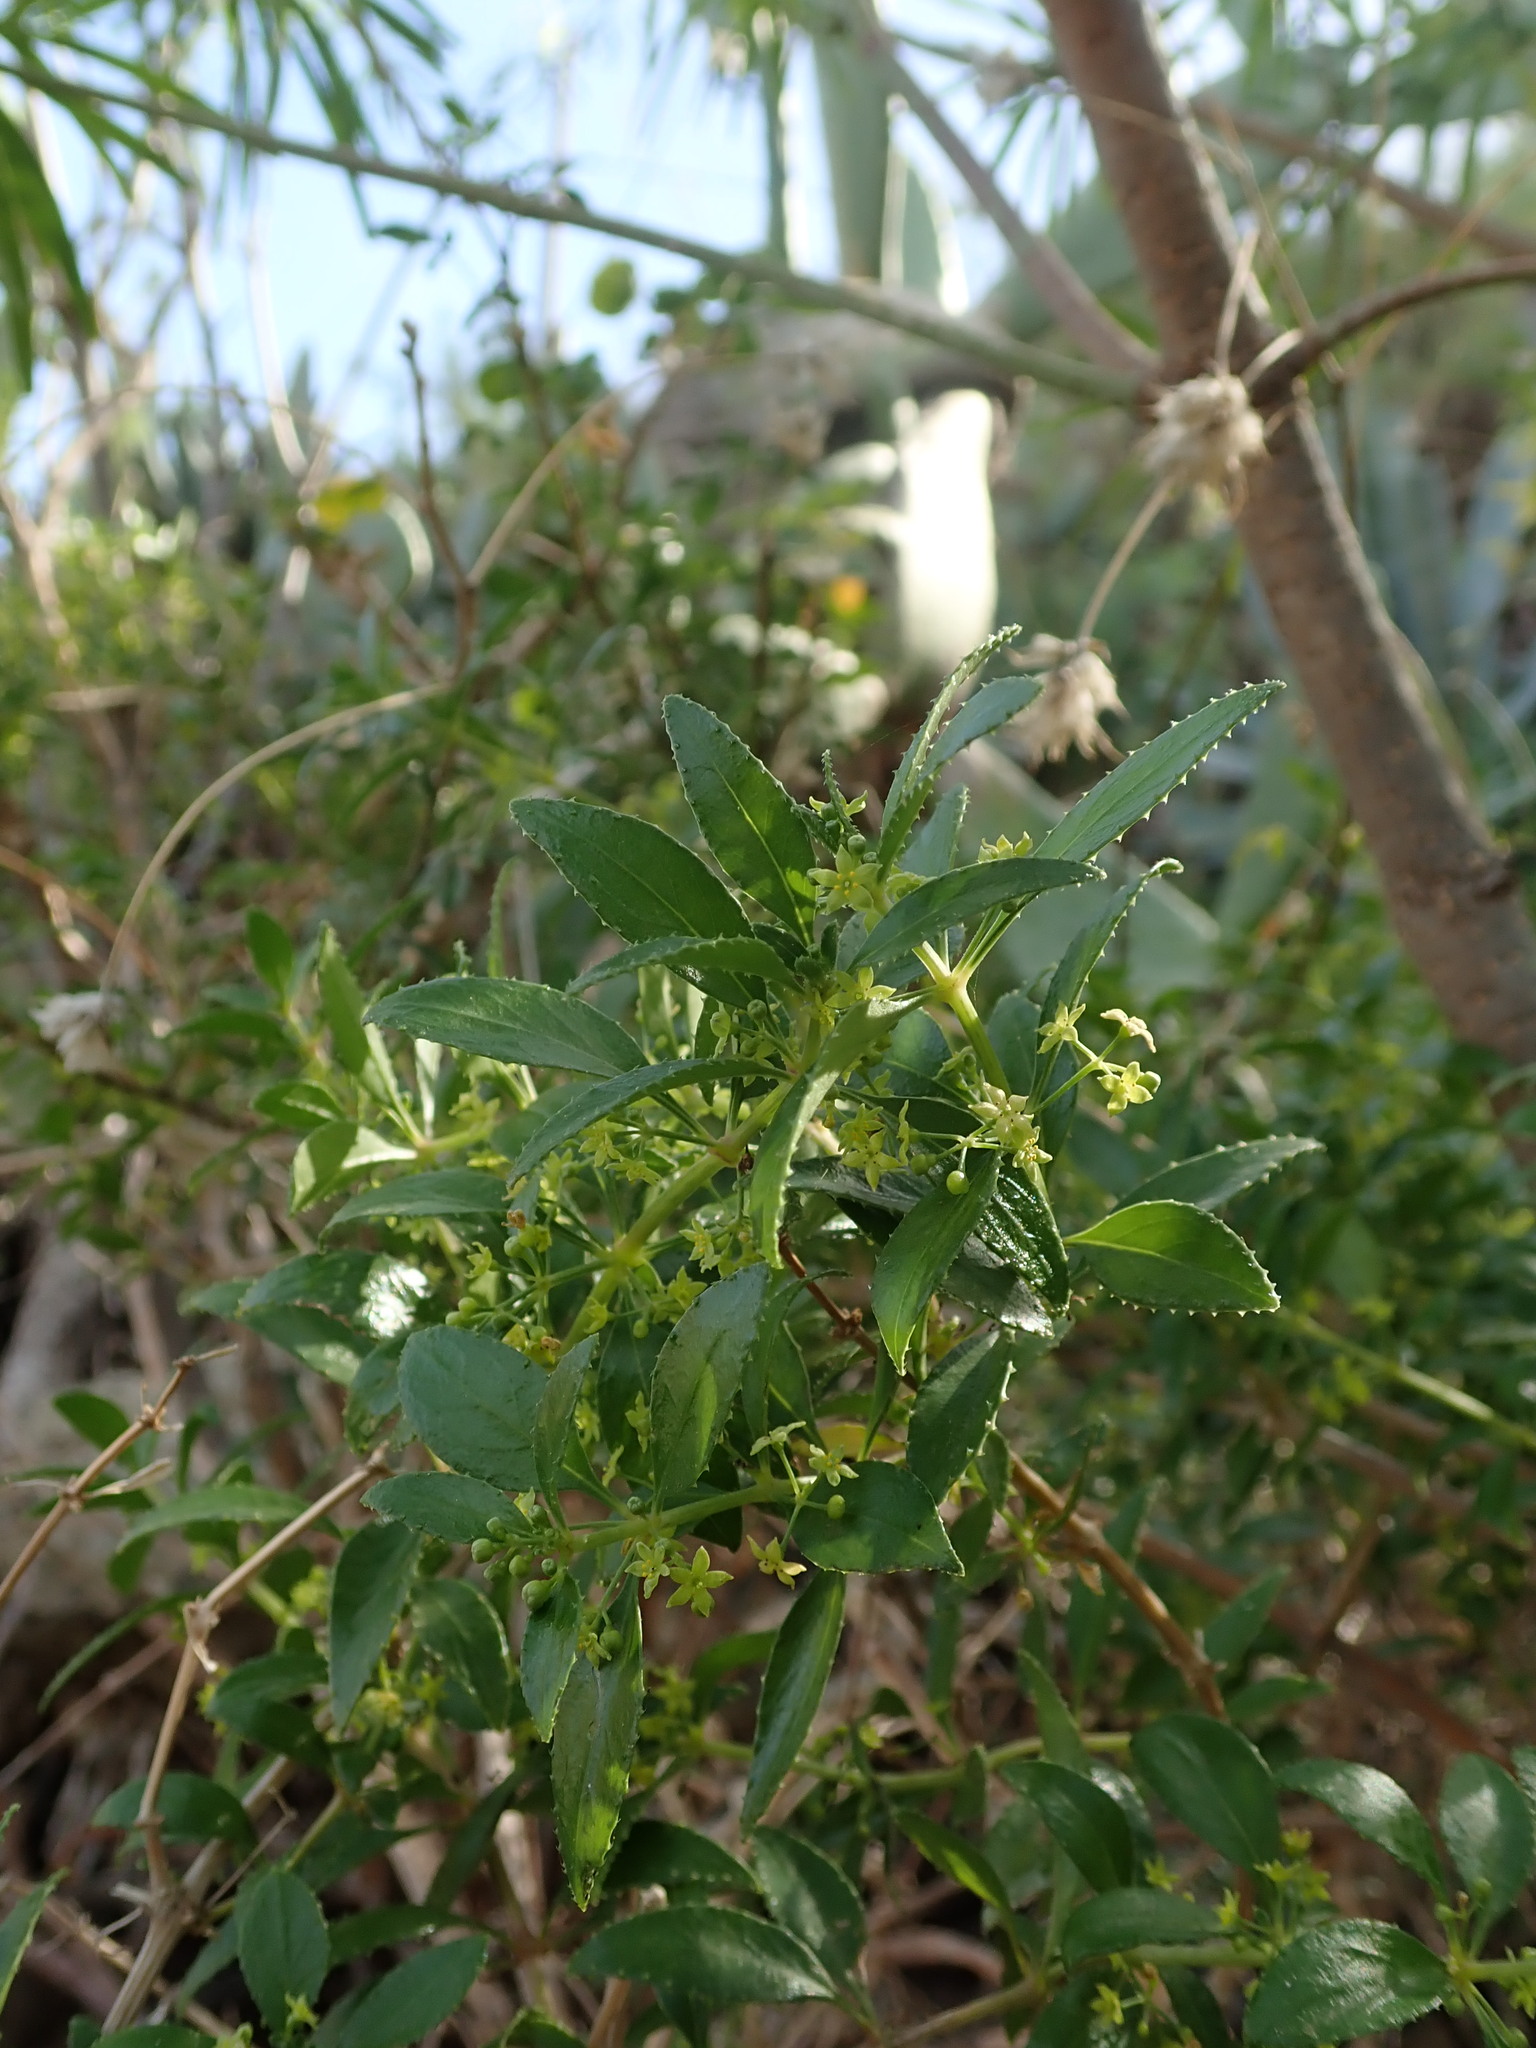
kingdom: Plantae
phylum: Tracheophyta
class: Magnoliopsida
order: Gentianales
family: Rubiaceae
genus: Rubia
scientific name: Rubia fruticosa
